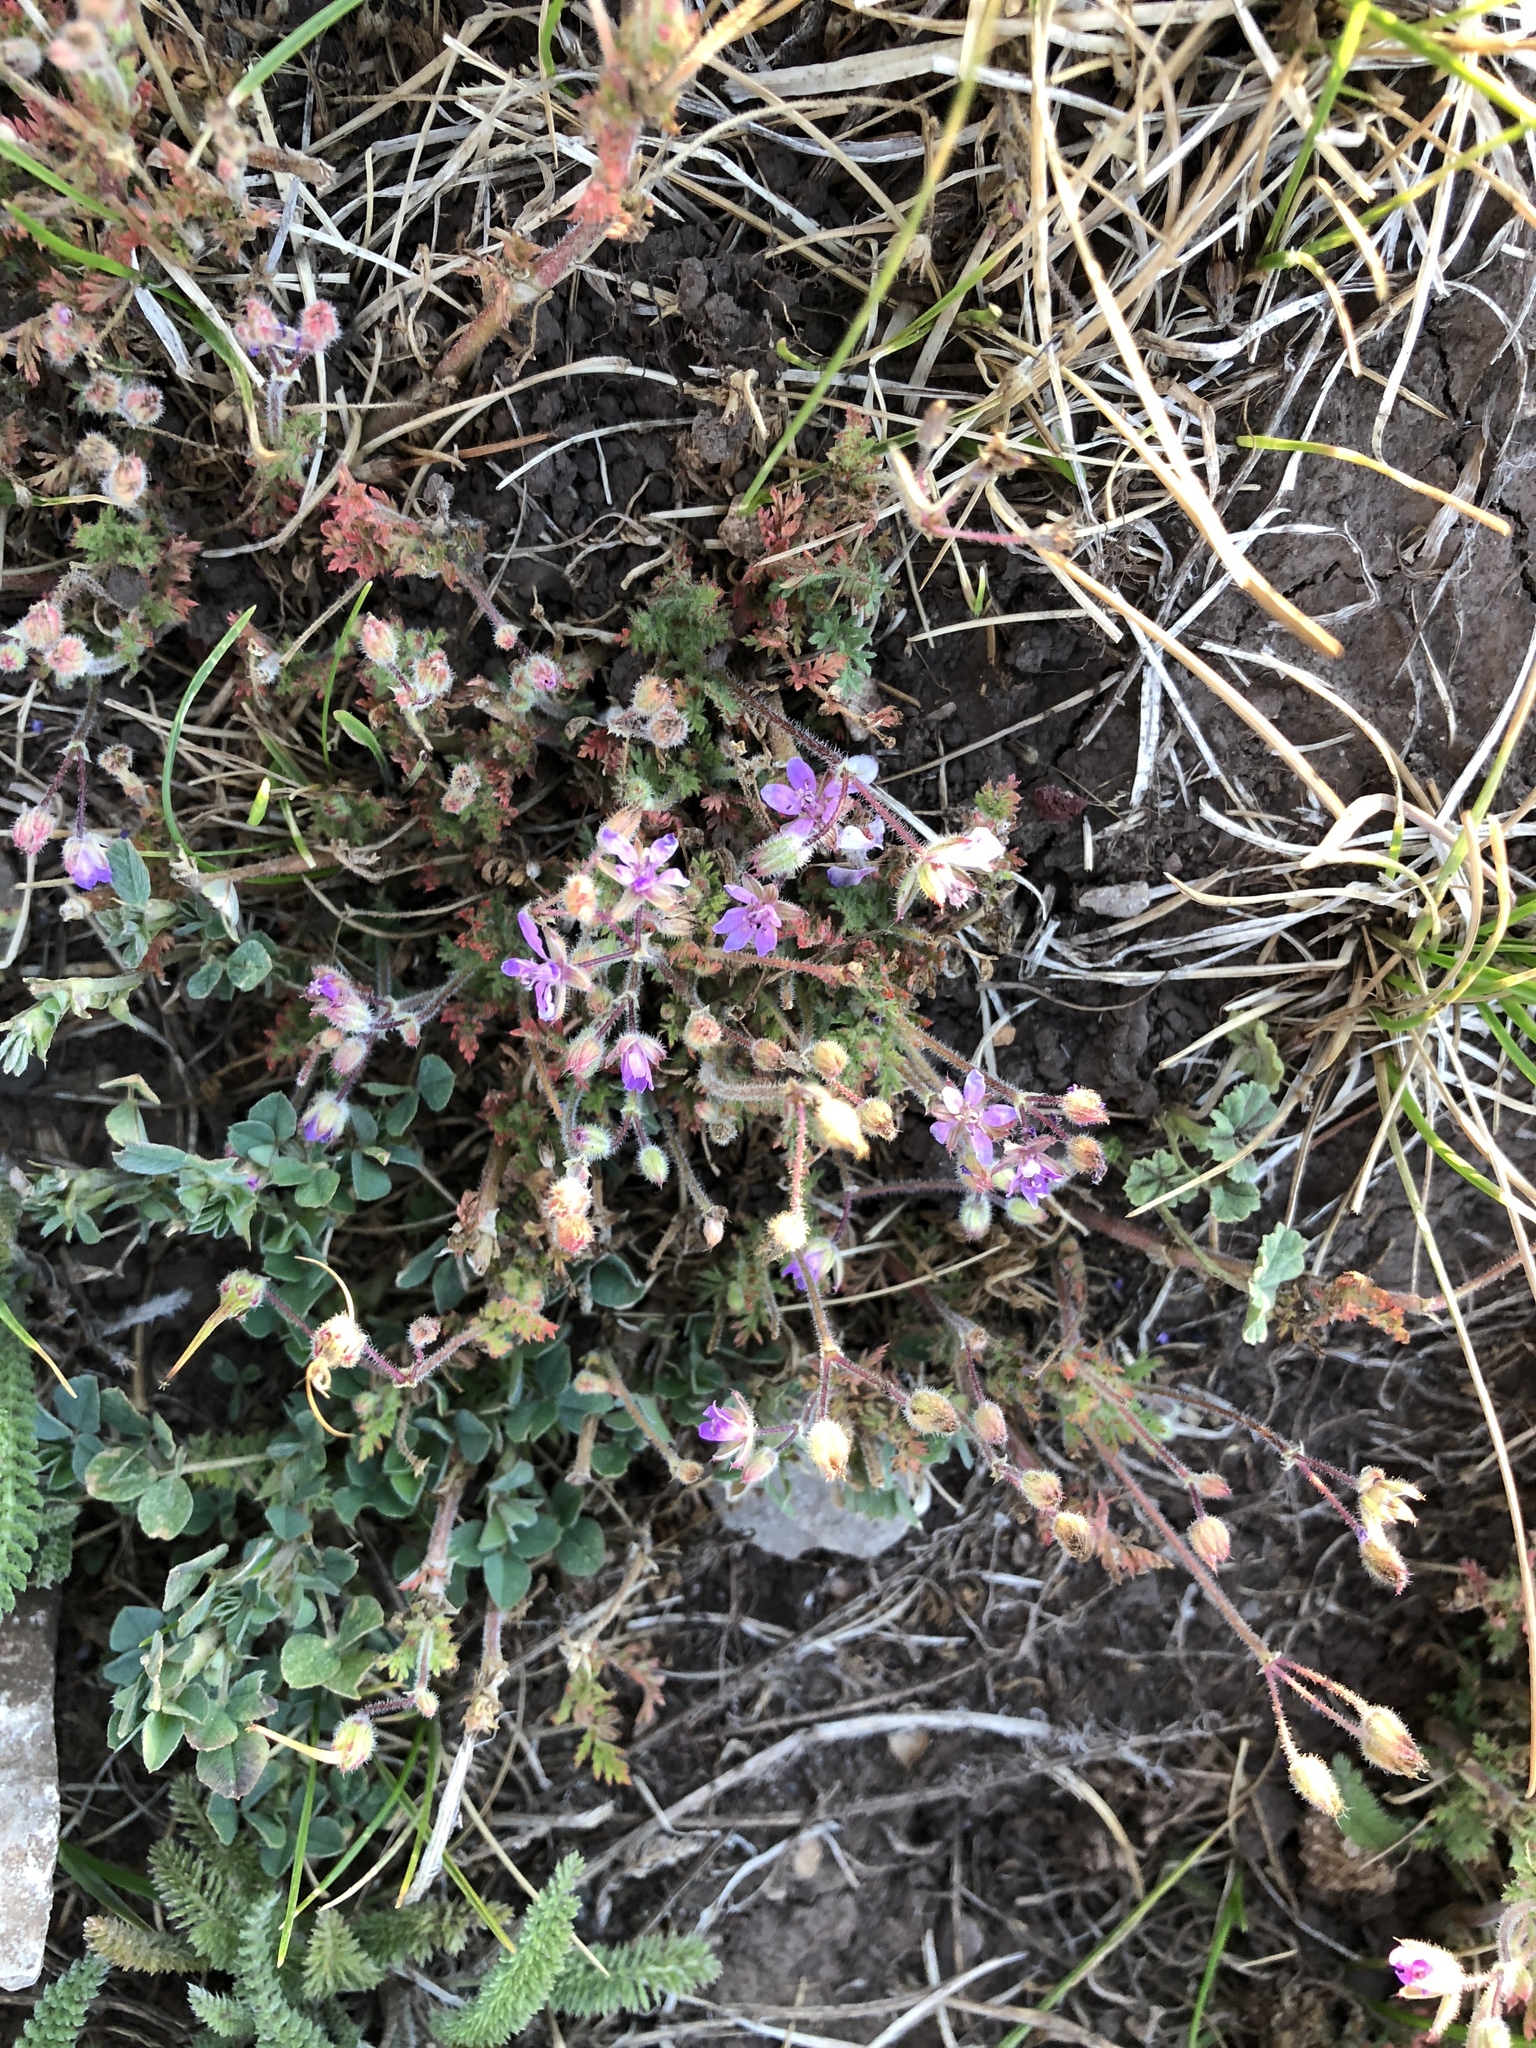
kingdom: Plantae
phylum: Tracheophyta
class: Magnoliopsida
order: Geraniales
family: Geraniaceae
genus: Erodium
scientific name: Erodium cicutarium
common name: Common stork's-bill
